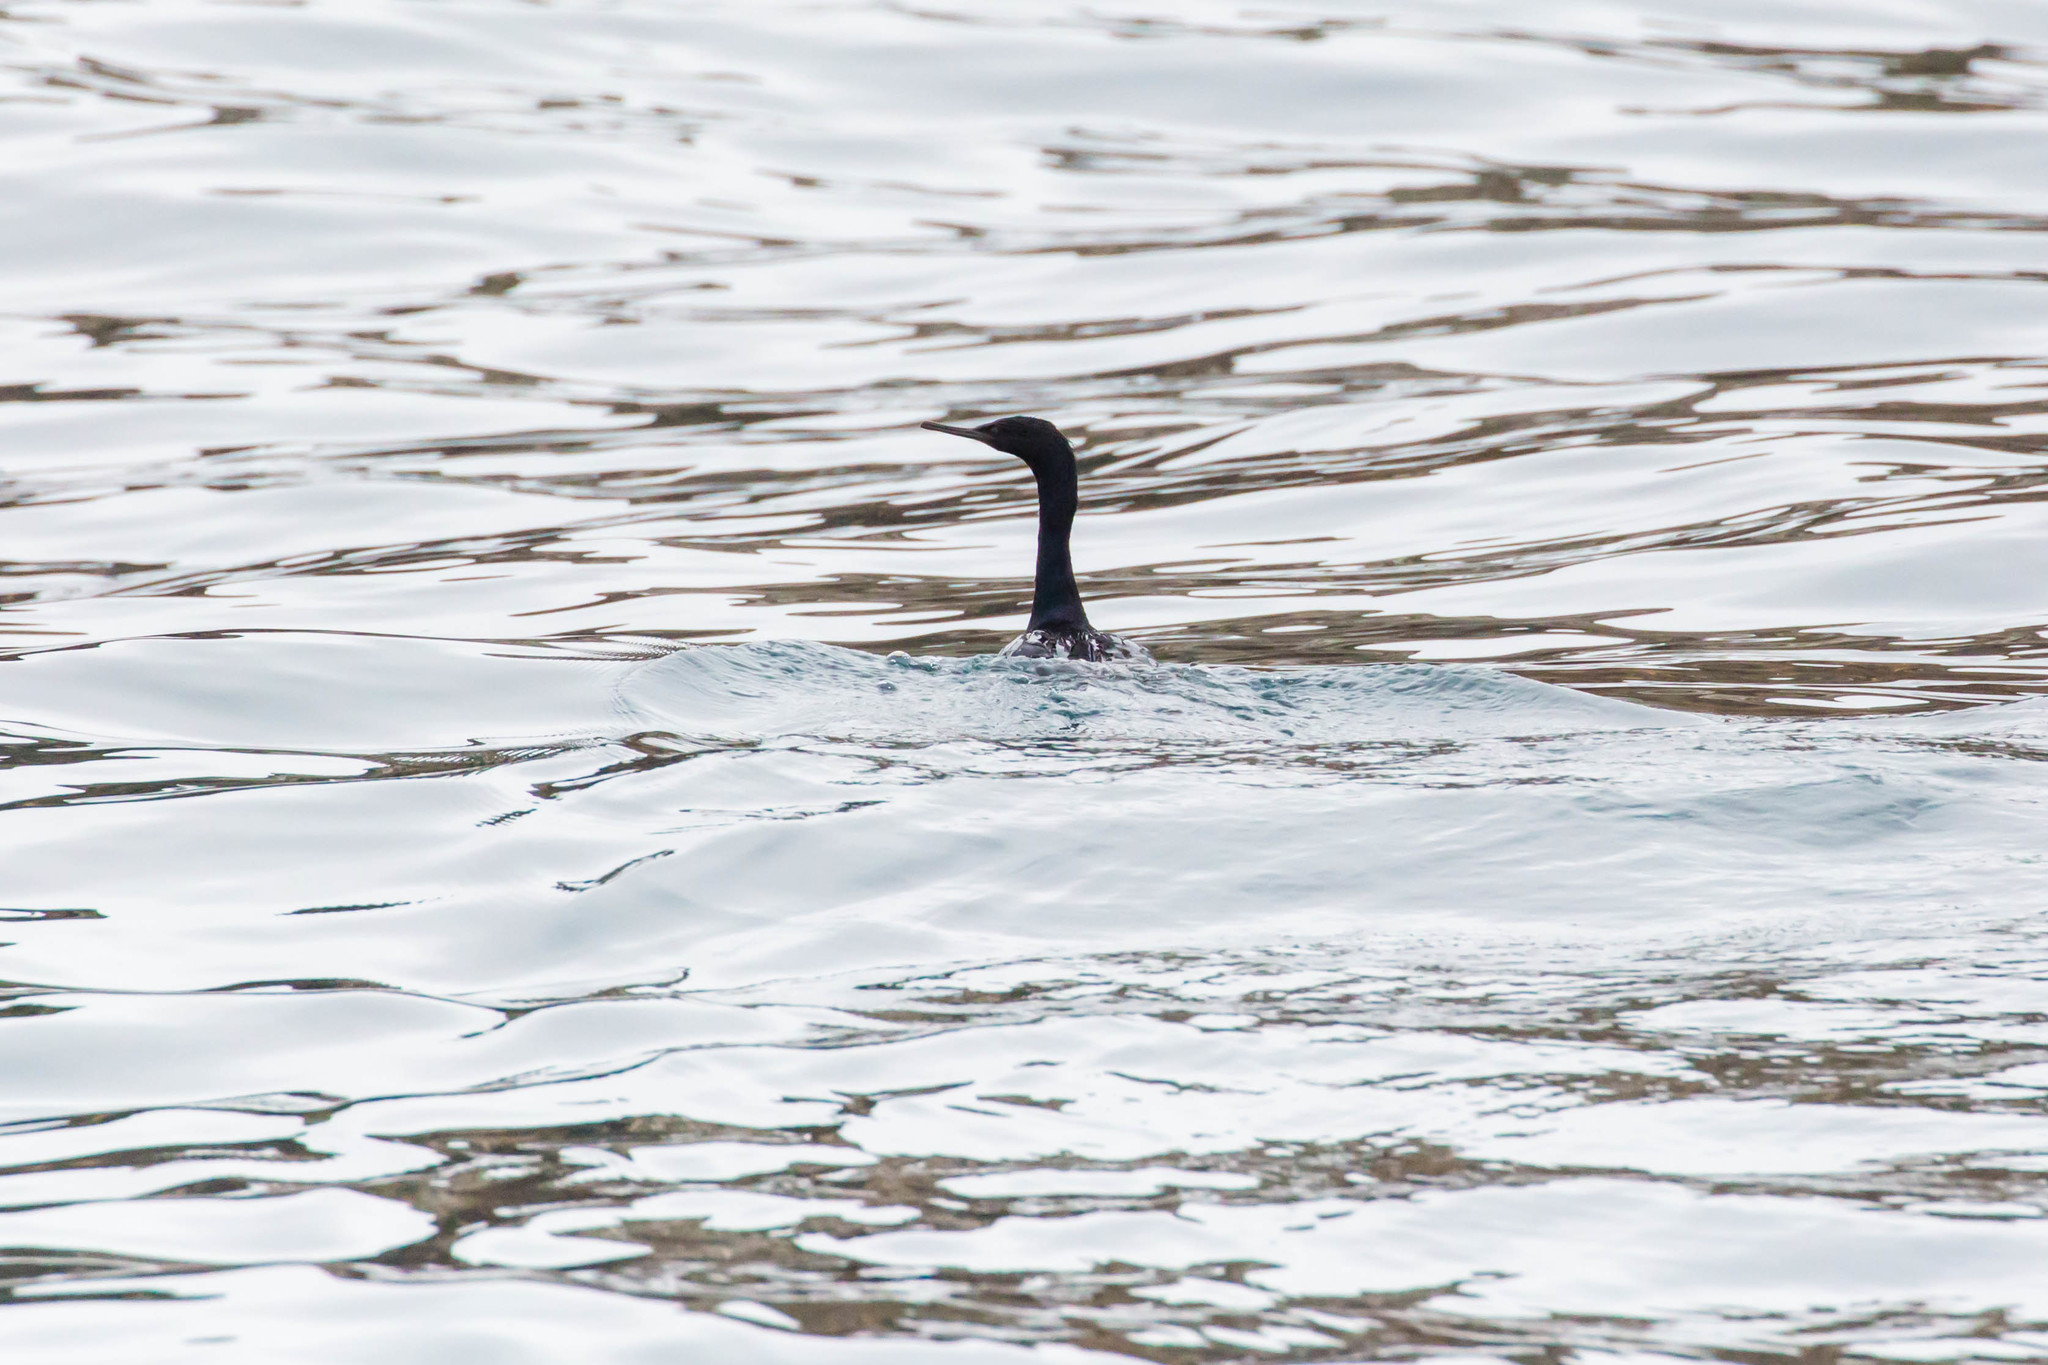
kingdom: Animalia
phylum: Chordata
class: Aves
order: Suliformes
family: Phalacrocoracidae
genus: Phalacrocorax
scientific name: Phalacrocorax pelagicus
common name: Pelagic cormorant
